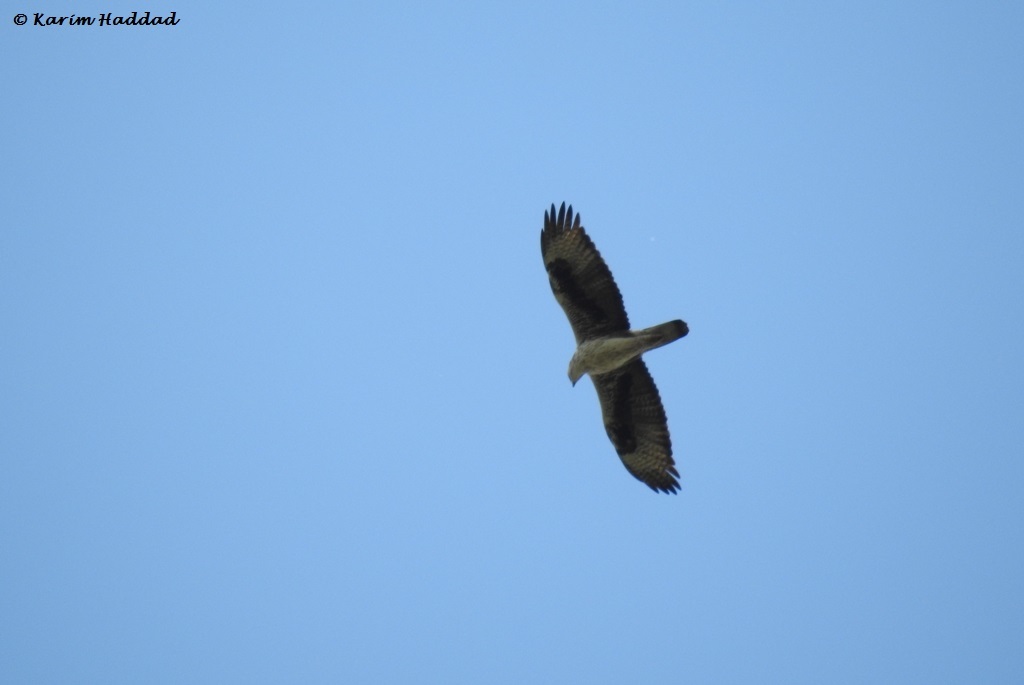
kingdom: Animalia
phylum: Chordata
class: Aves
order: Accipitriformes
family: Accipitridae
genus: Aquila
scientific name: Aquila fasciata
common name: Bonelli's eagle
